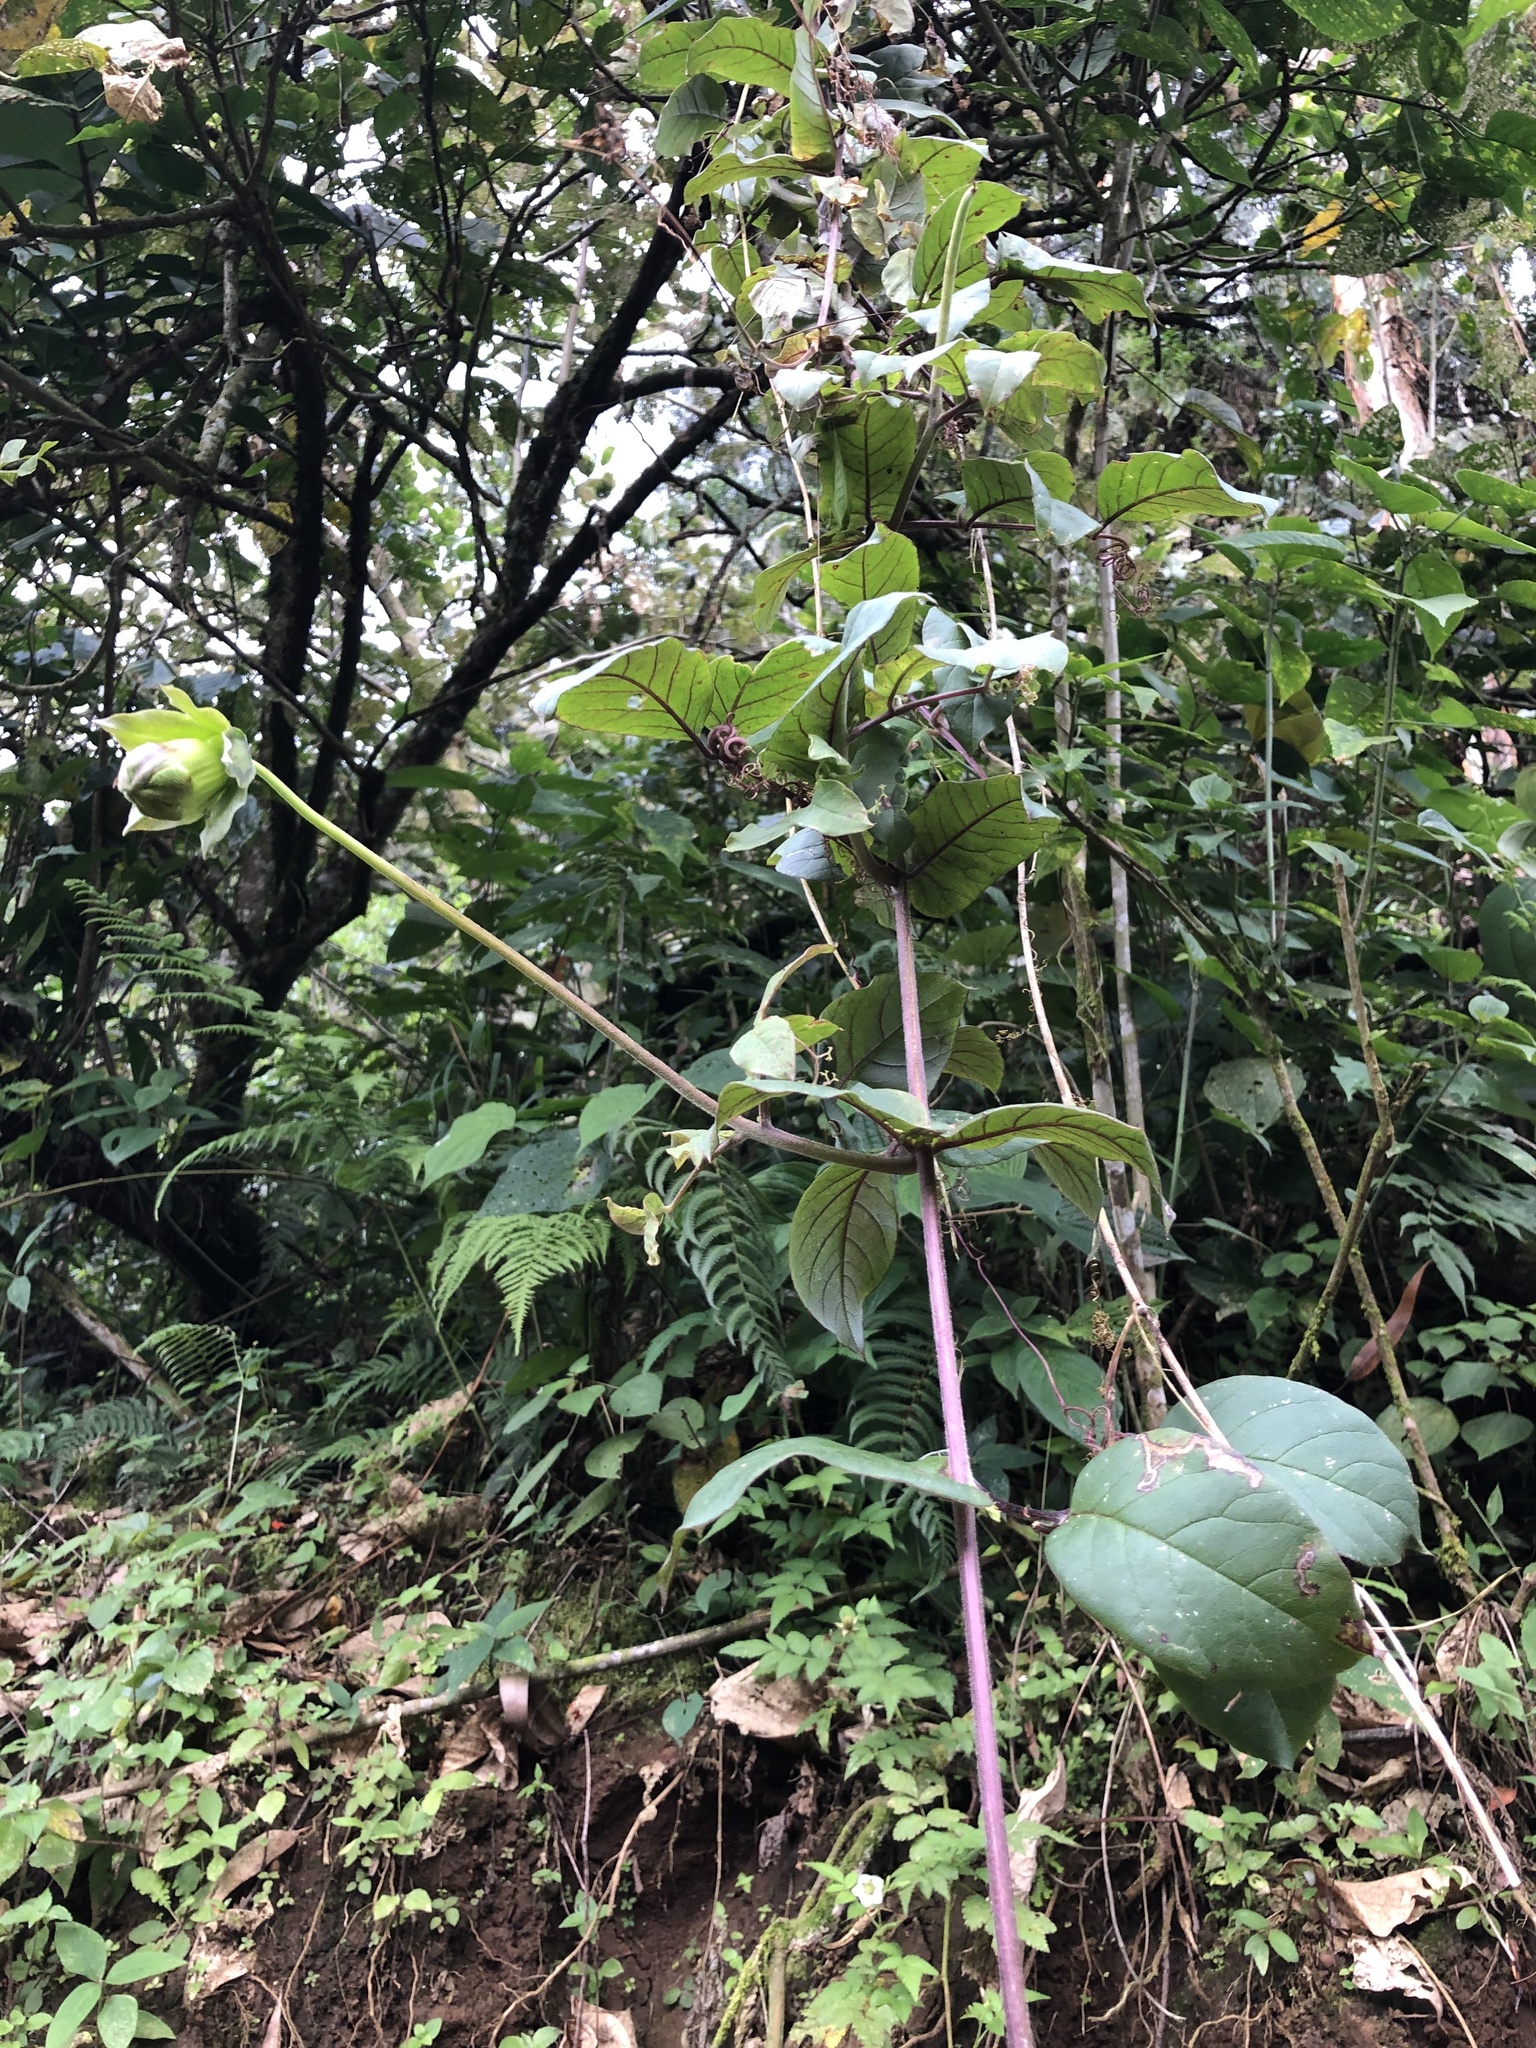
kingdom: Plantae
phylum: Tracheophyta
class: Magnoliopsida
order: Ericales
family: Polemoniaceae
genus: Cobaea
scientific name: Cobaea scandens
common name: Cup-and-saucer-vine
